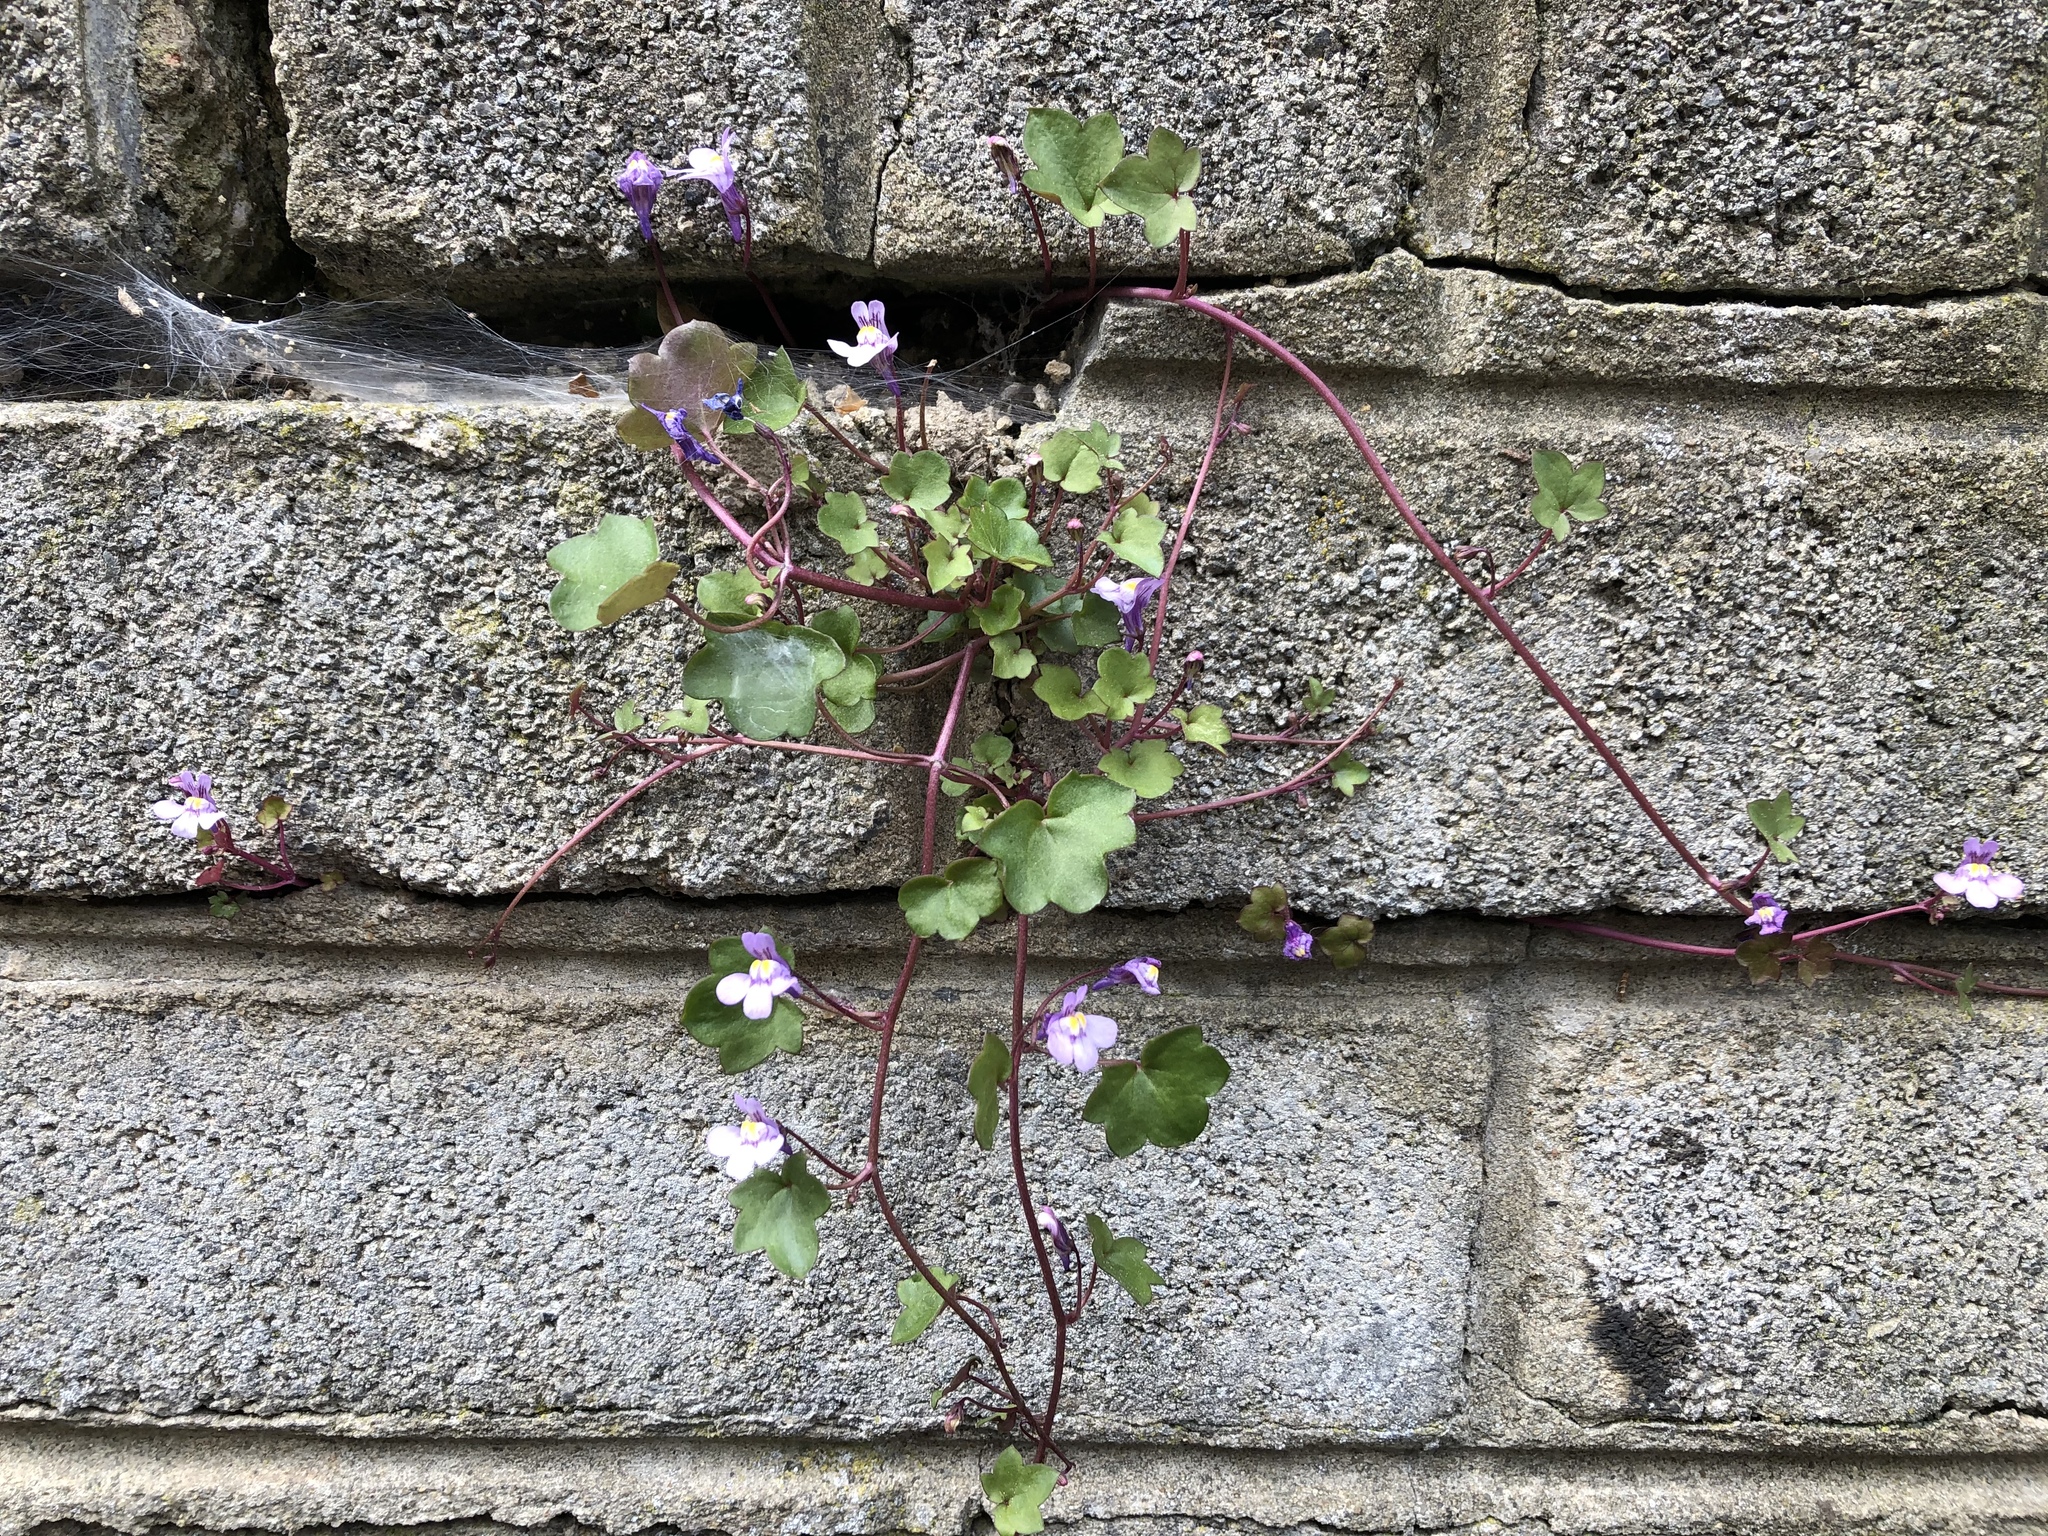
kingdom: Plantae
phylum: Tracheophyta
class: Magnoliopsida
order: Lamiales
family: Plantaginaceae
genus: Cymbalaria
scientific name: Cymbalaria muralis
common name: Ivy-leaved toadflax
